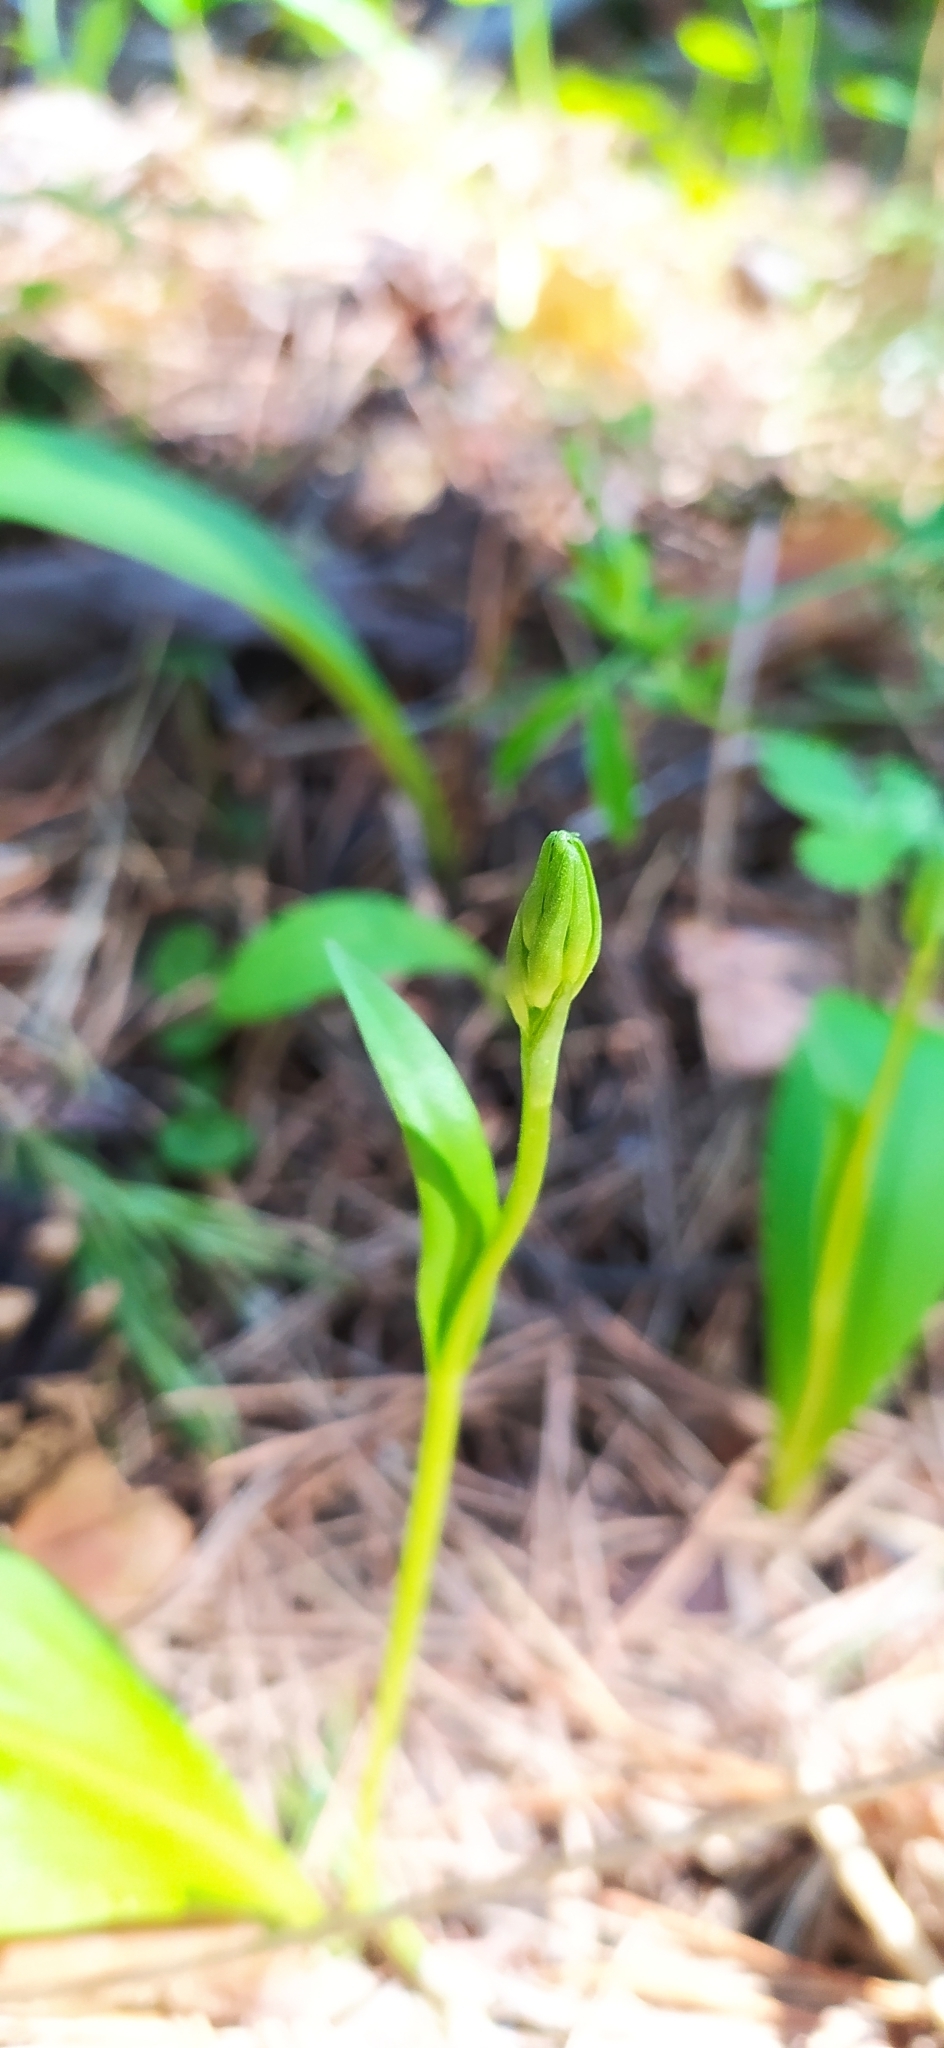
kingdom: Plantae
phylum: Tracheophyta
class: Liliopsida
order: Asparagales
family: Orchidaceae
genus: Platanthera
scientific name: Platanthera bifolia
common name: Lesser butterfly-orchid
